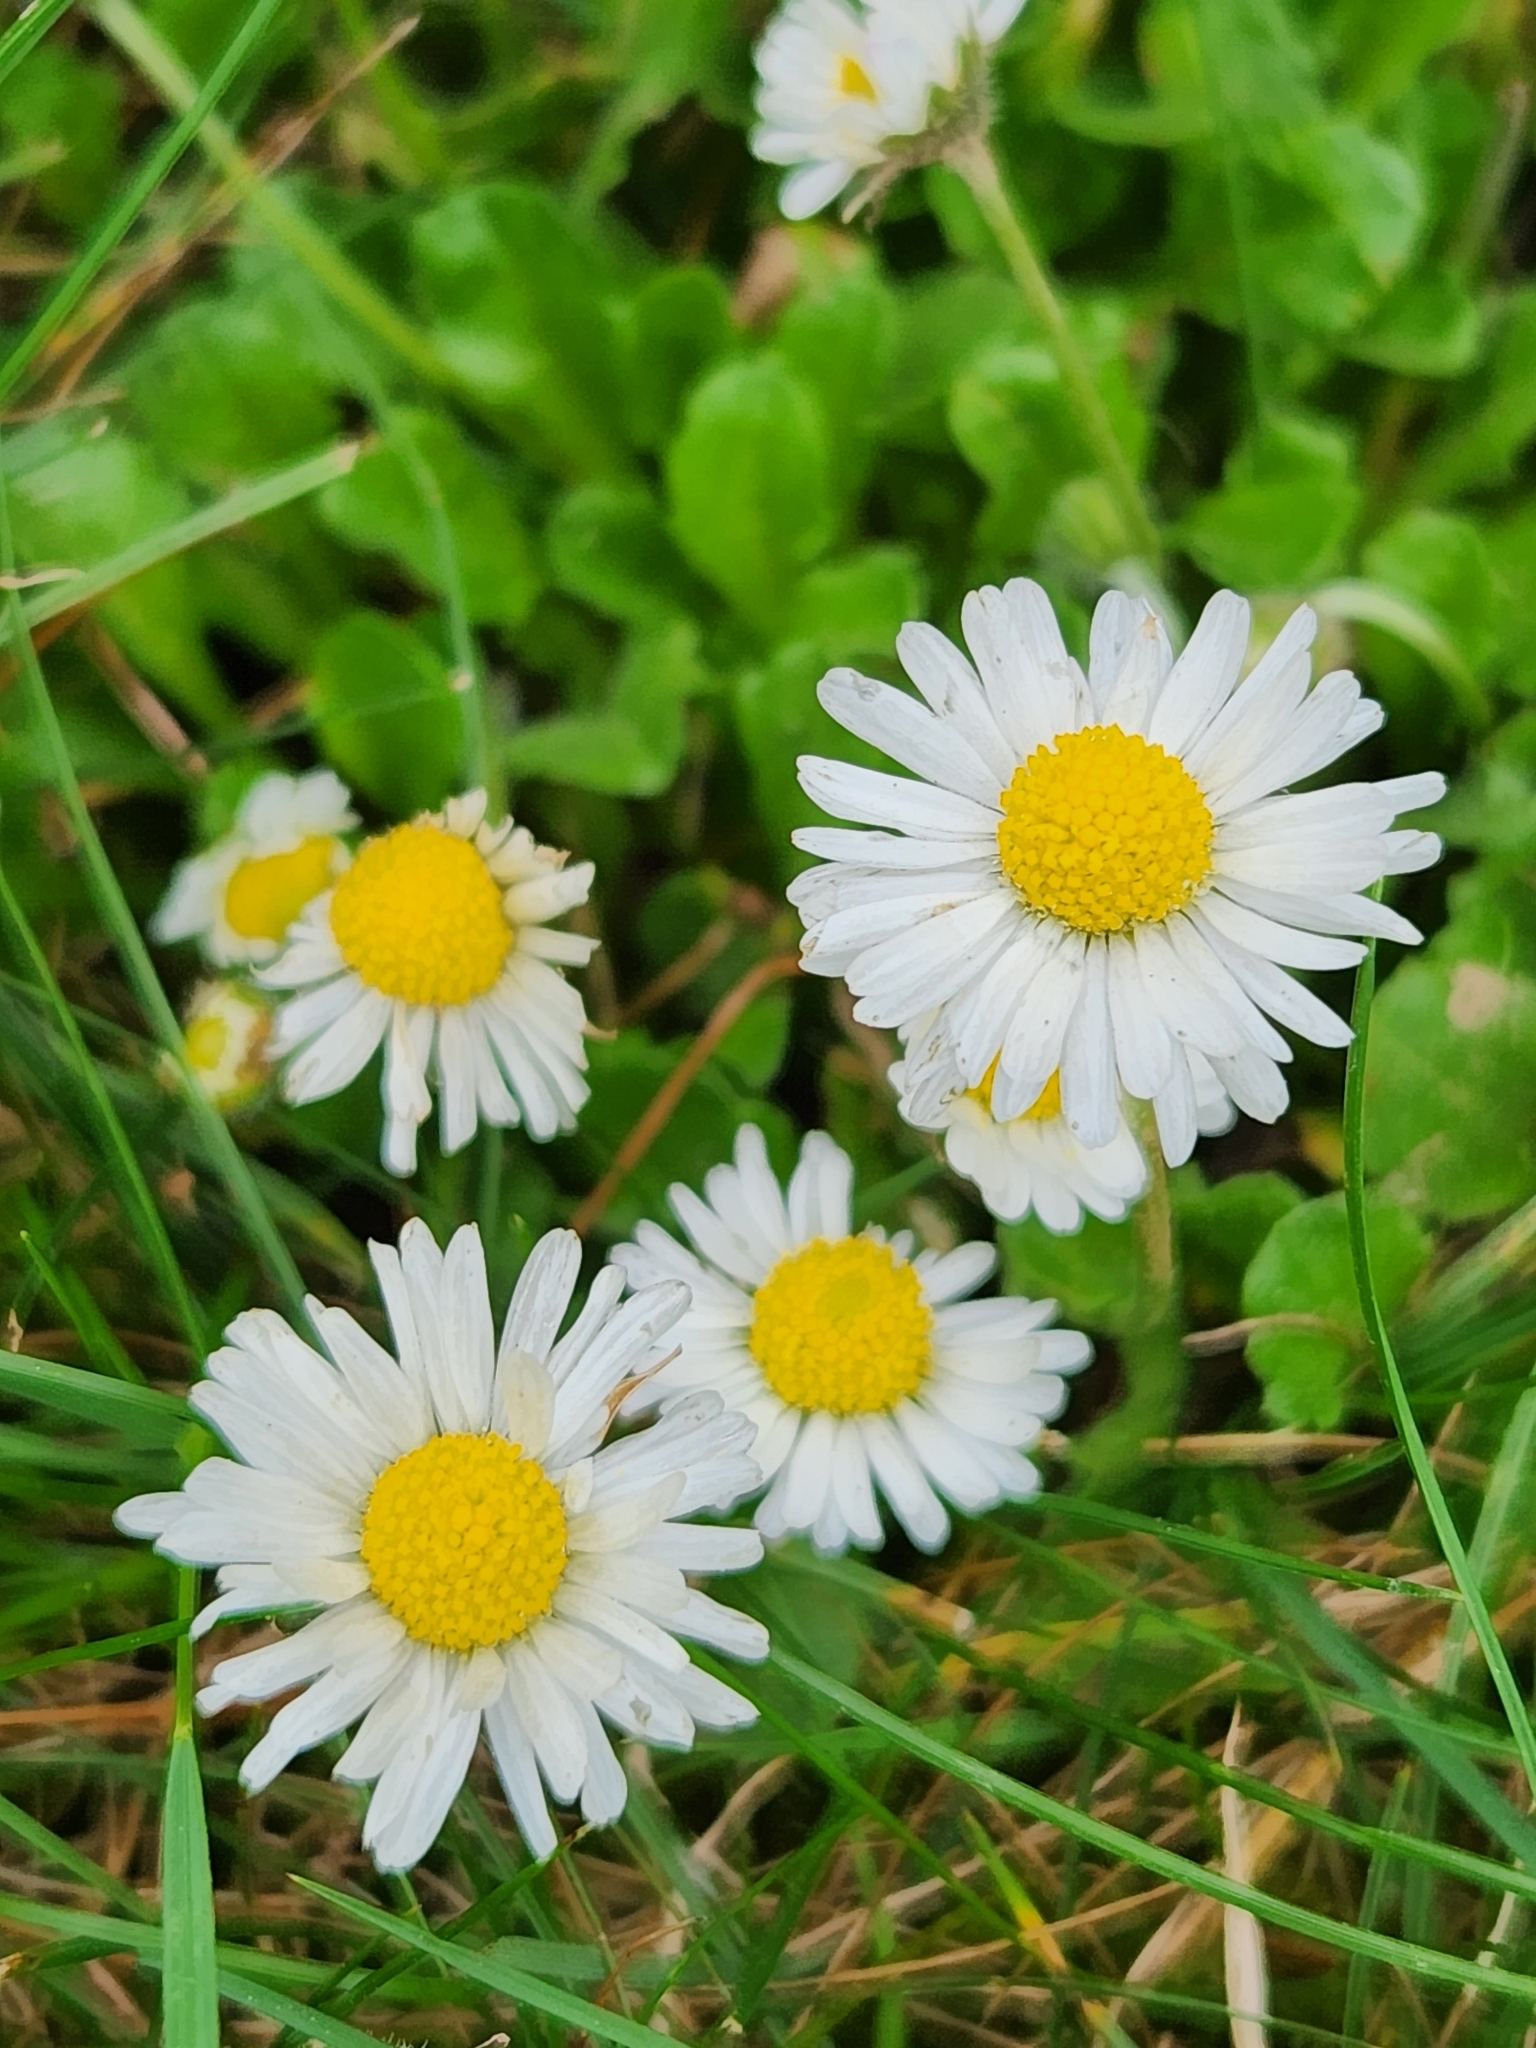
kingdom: Plantae
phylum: Tracheophyta
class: Magnoliopsida
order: Asterales
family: Asteraceae
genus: Bellis
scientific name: Bellis perennis
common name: Lawndaisy
